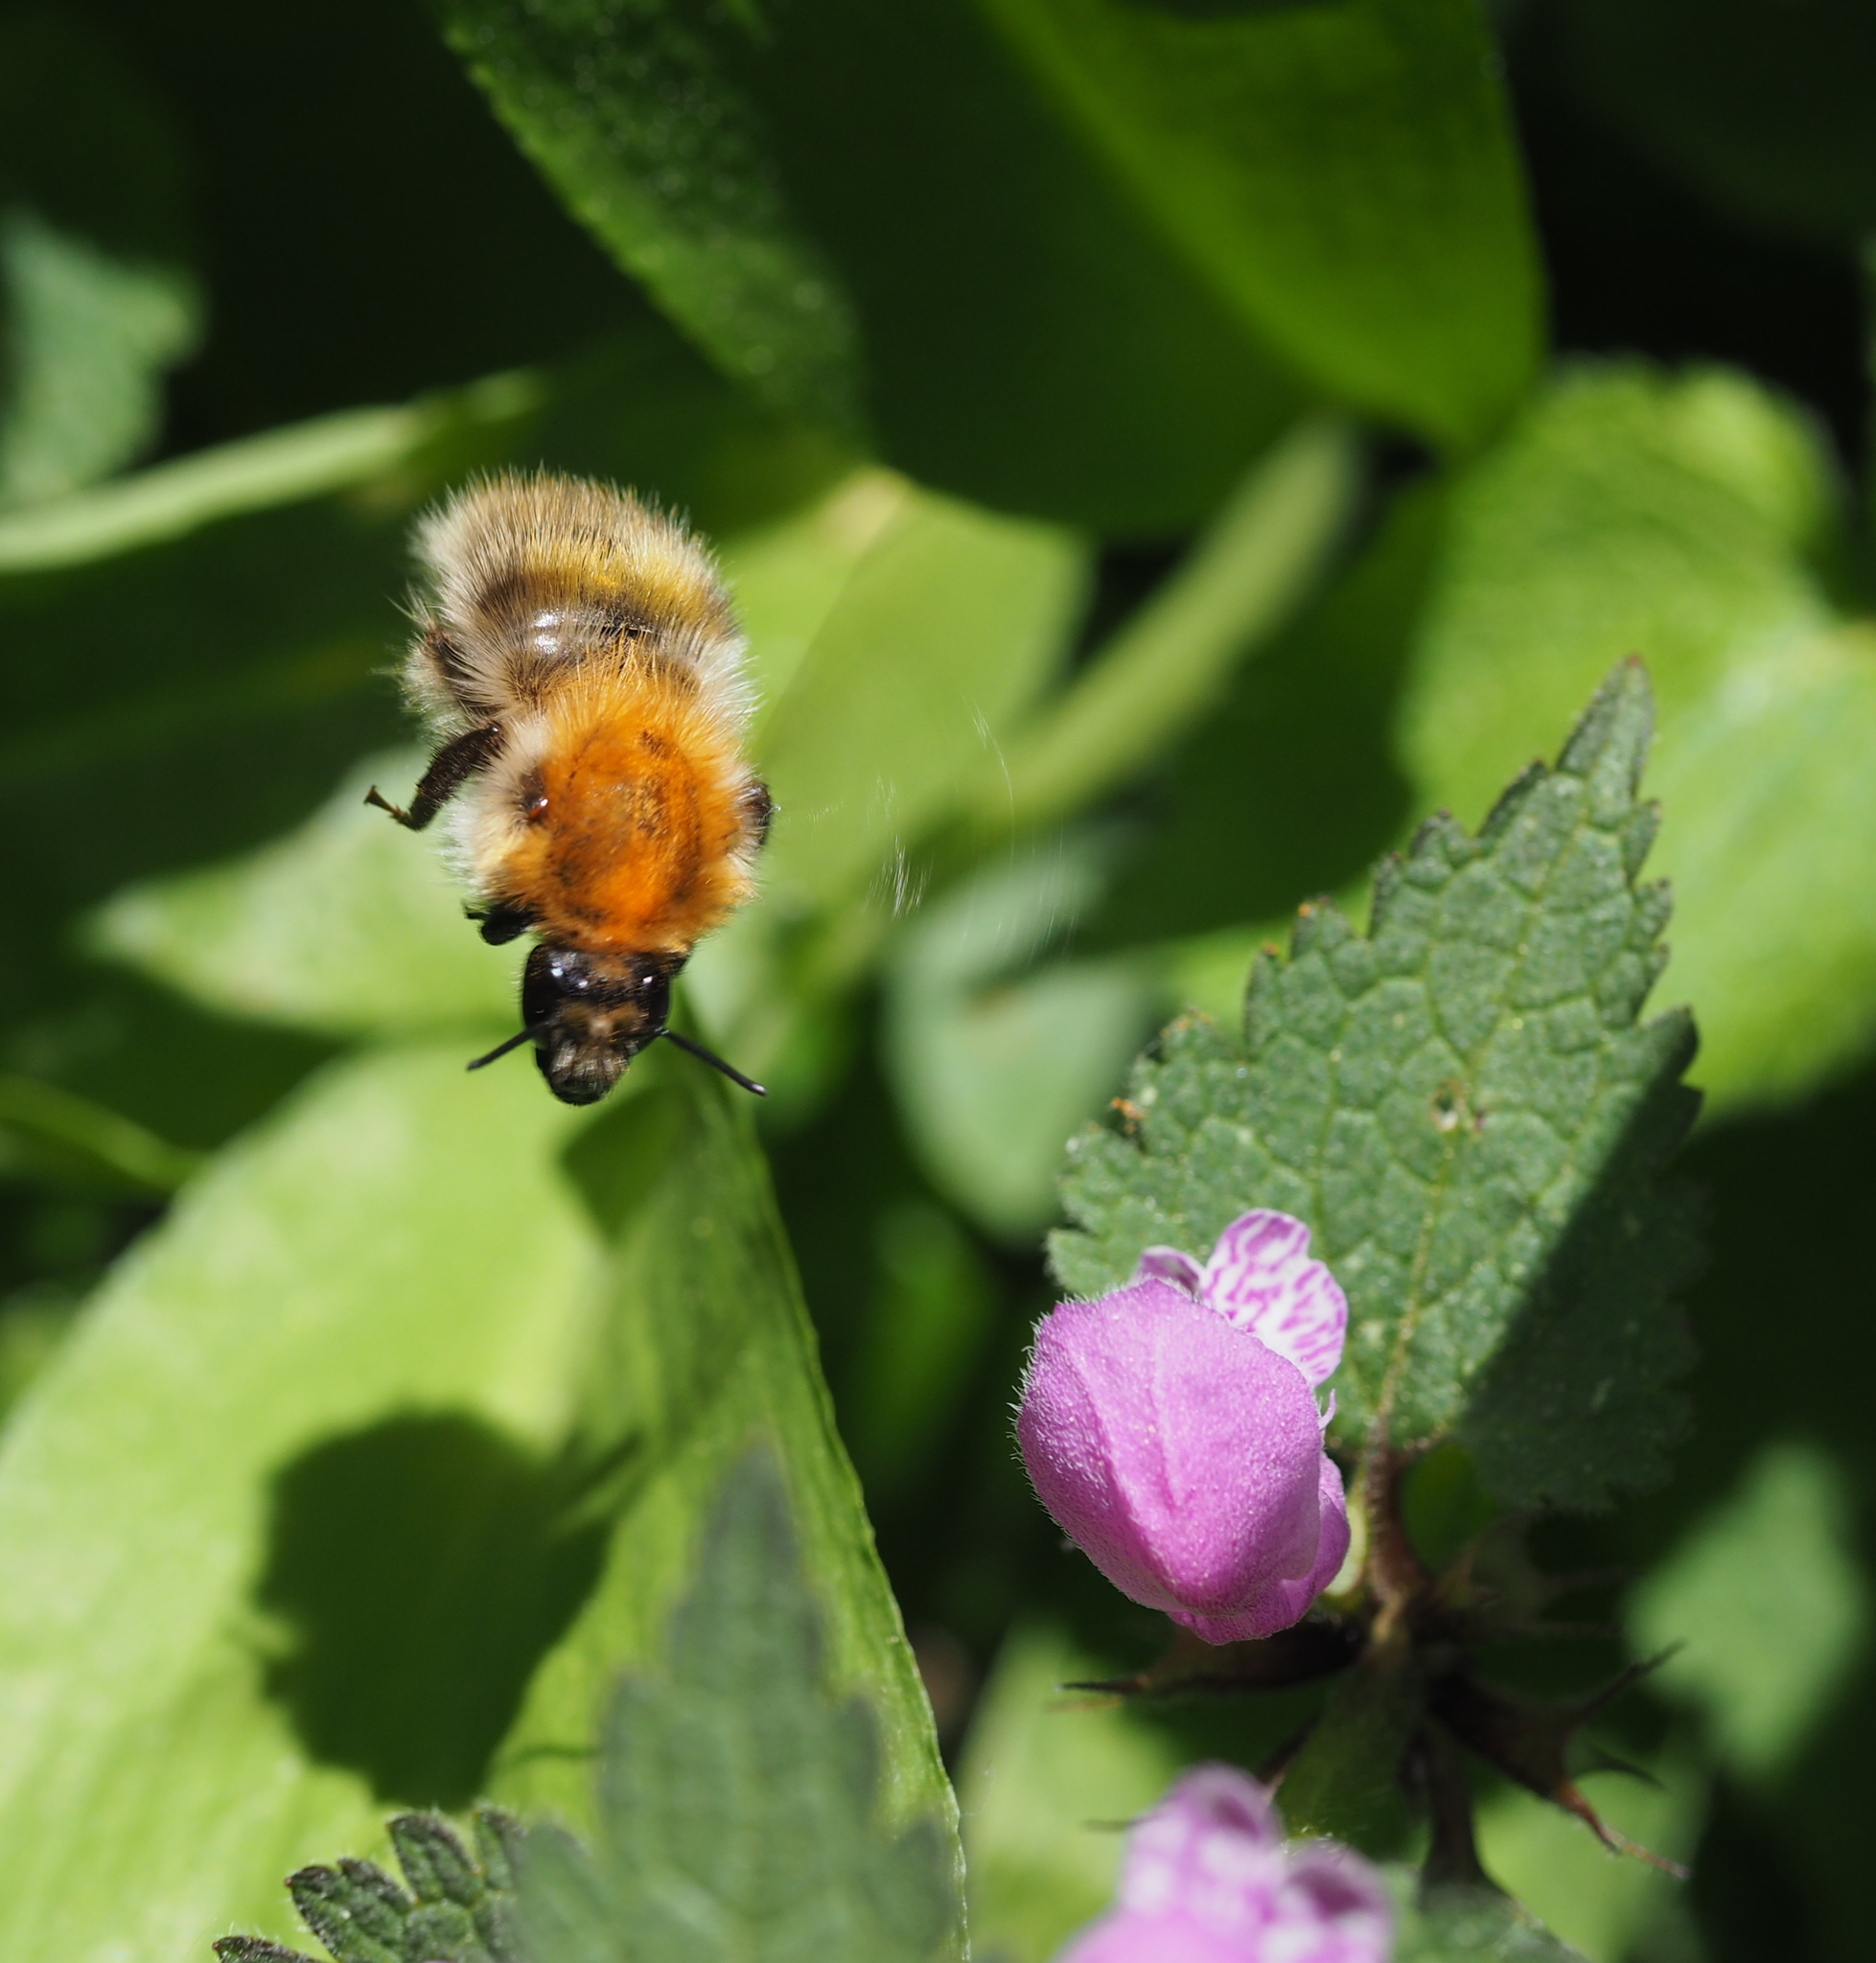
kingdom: Animalia
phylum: Arthropoda
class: Insecta
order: Hymenoptera
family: Apidae
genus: Bombus
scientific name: Bombus pascuorum
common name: Common carder bee
